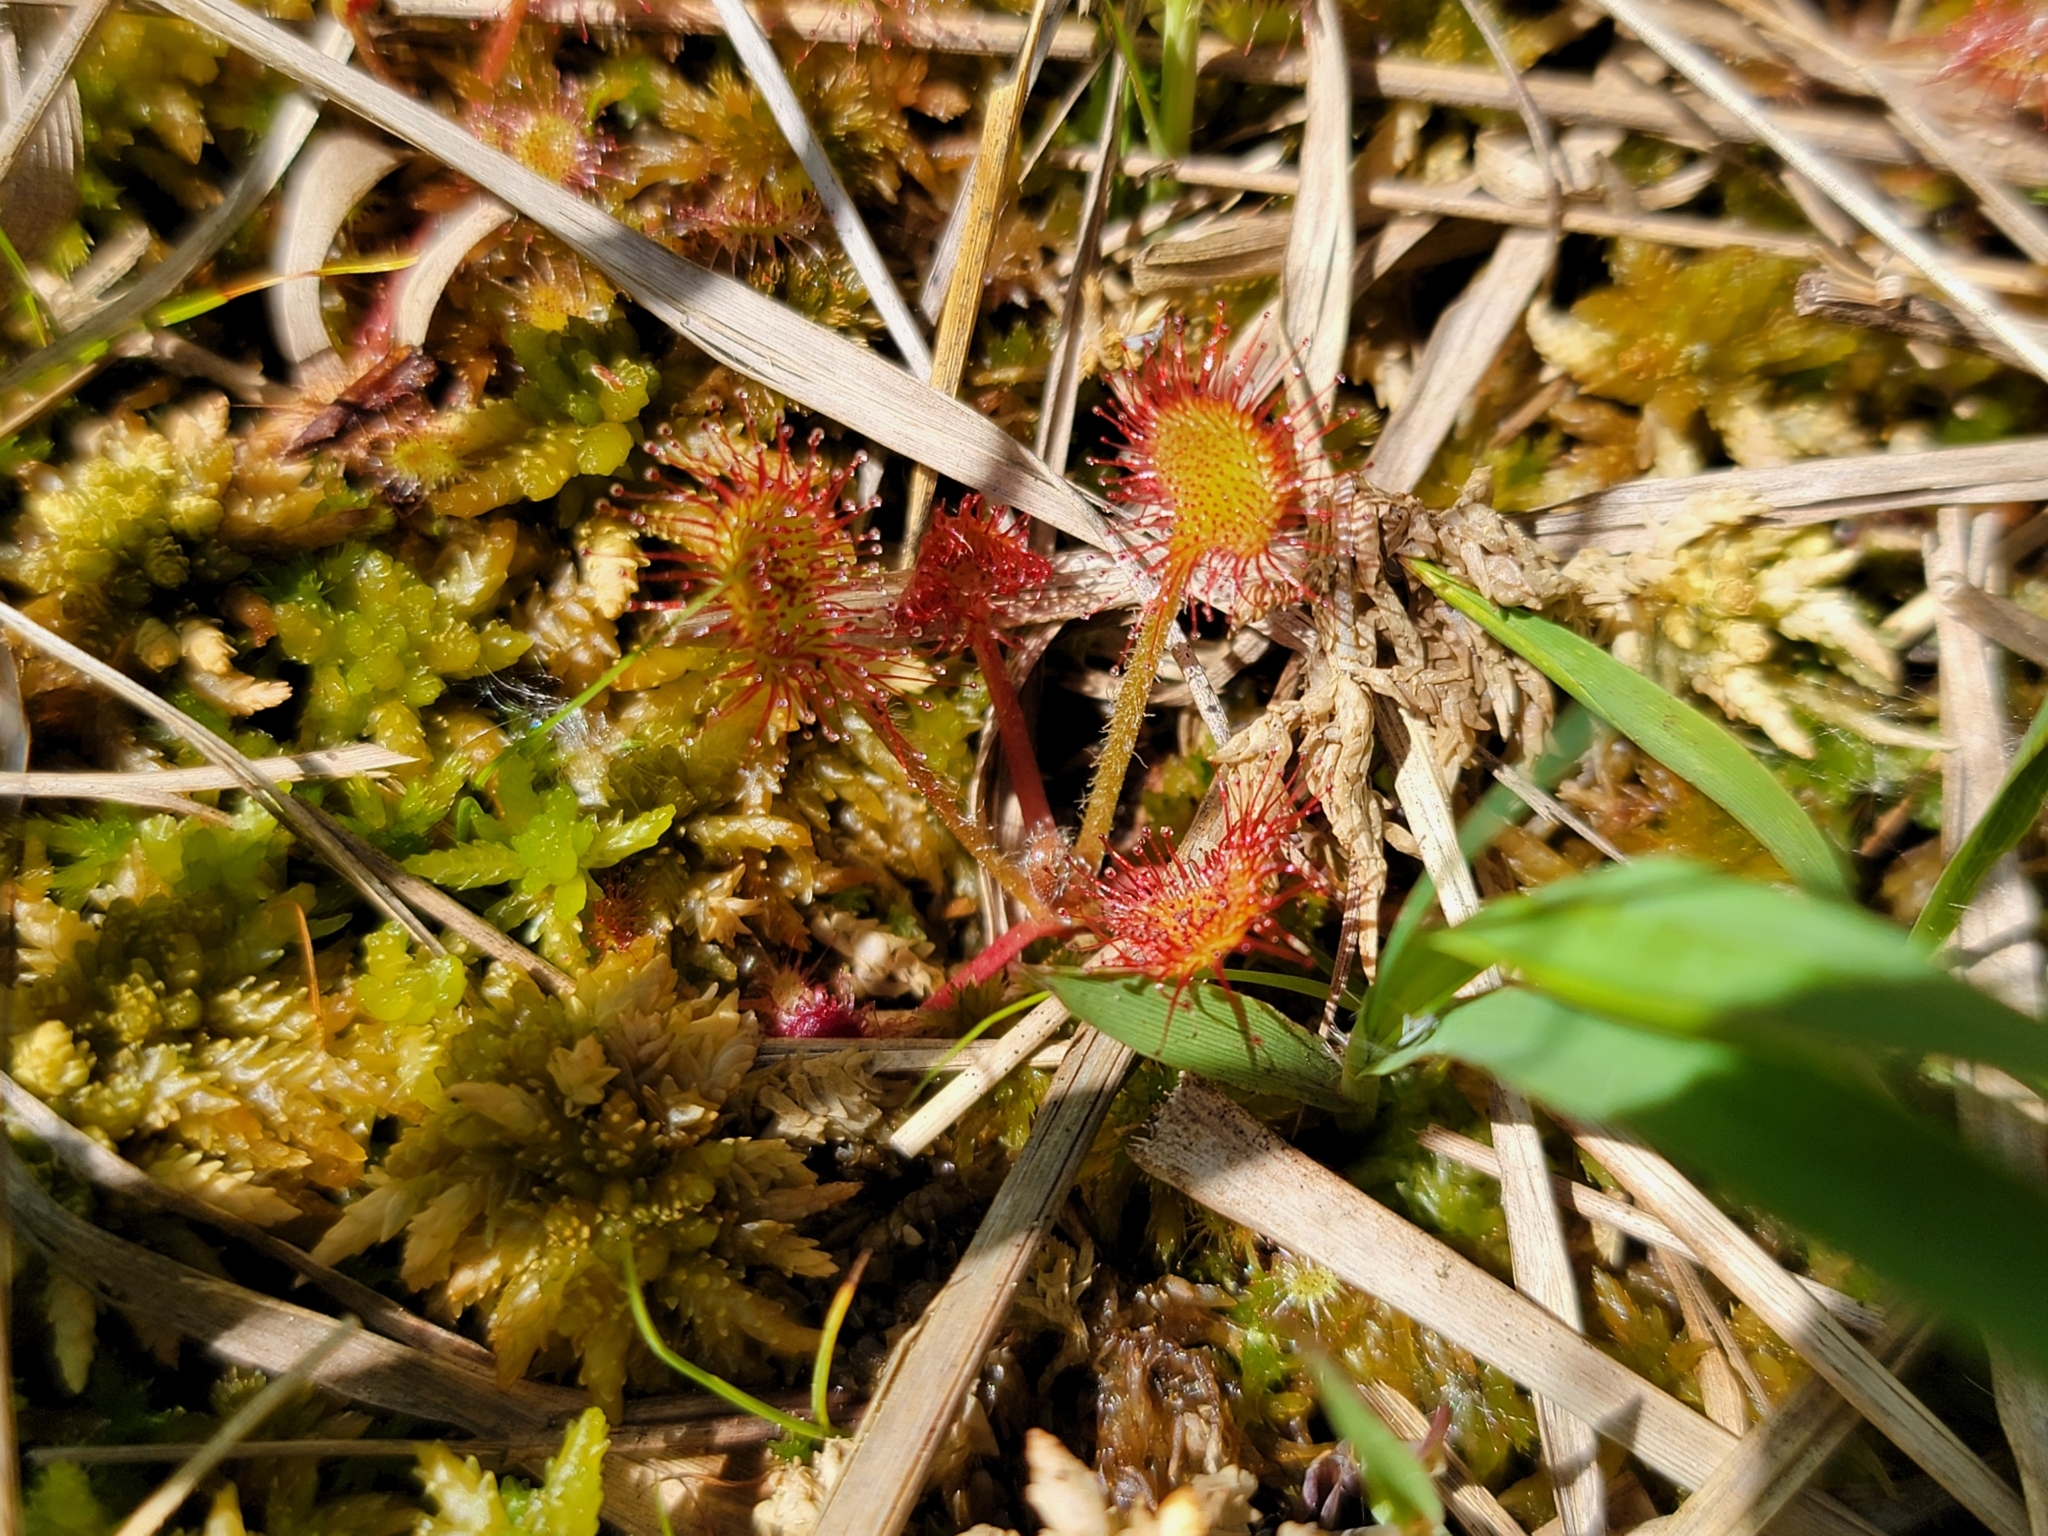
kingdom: Plantae
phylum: Tracheophyta
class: Magnoliopsida
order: Caryophyllales
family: Droseraceae
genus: Drosera
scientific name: Drosera rotundifolia
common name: Round-leaved sundew
